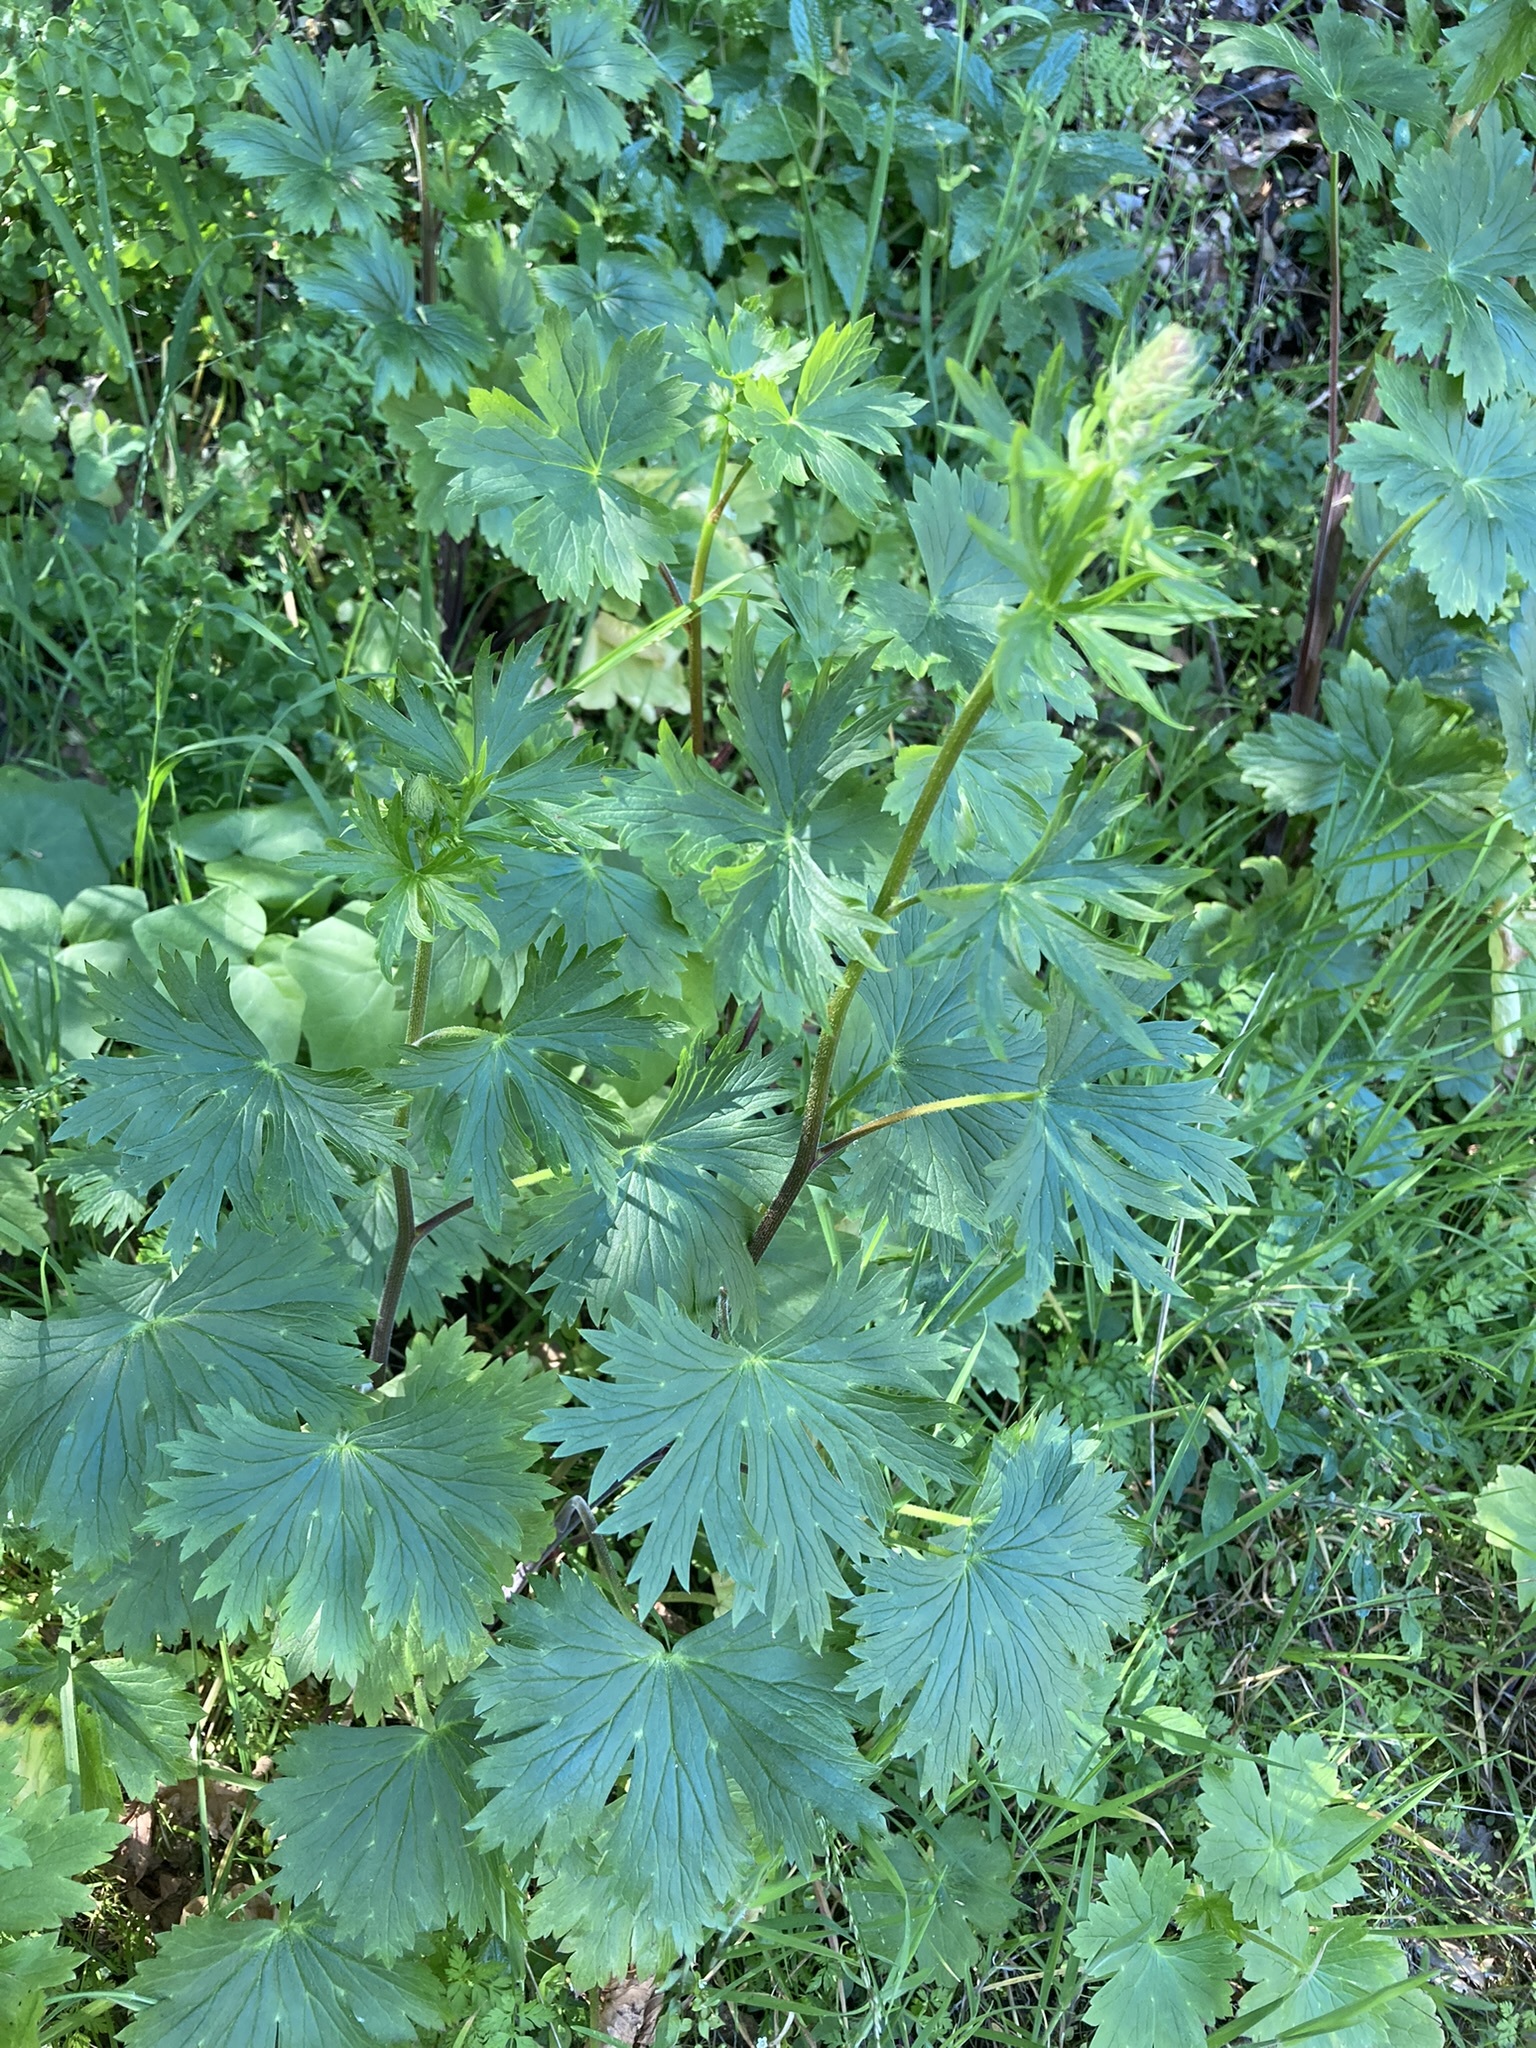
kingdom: Plantae
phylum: Tracheophyta
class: Magnoliopsida
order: Ranunculales
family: Ranunculaceae
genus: Delphinium
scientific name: Delphinium californicum
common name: California larkspur
